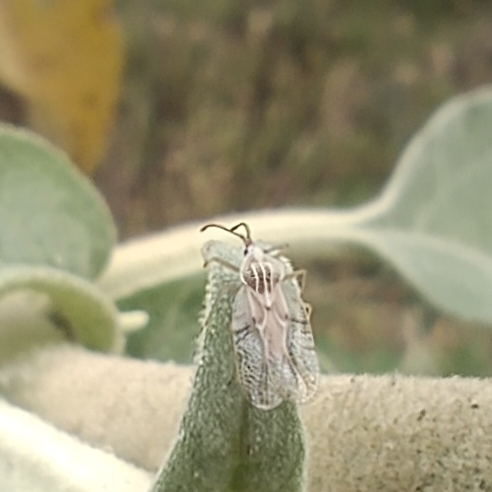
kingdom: Animalia
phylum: Arthropoda
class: Insecta
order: Hemiptera
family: Tingidae
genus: Gargaphia
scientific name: Gargaphia decoris
